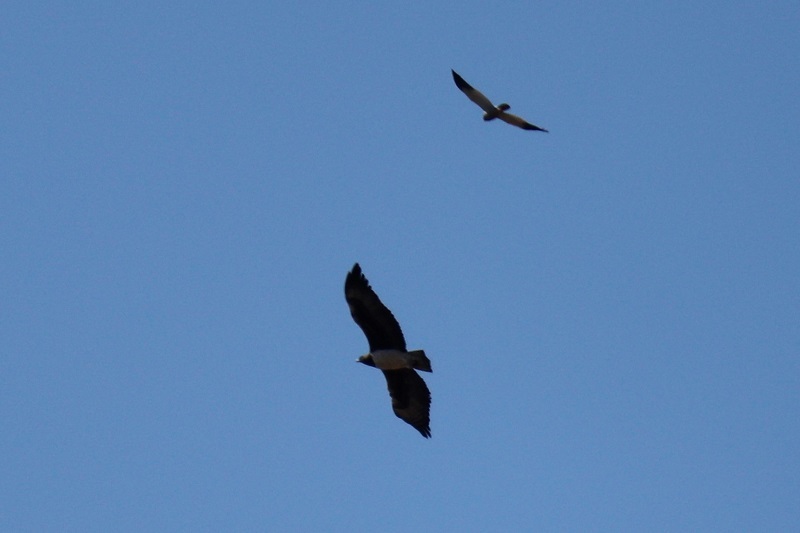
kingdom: Animalia
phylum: Chordata
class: Aves
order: Accipitriformes
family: Accipitridae
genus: Polemaetus
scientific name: Polemaetus bellicosus
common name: Martial eagle
